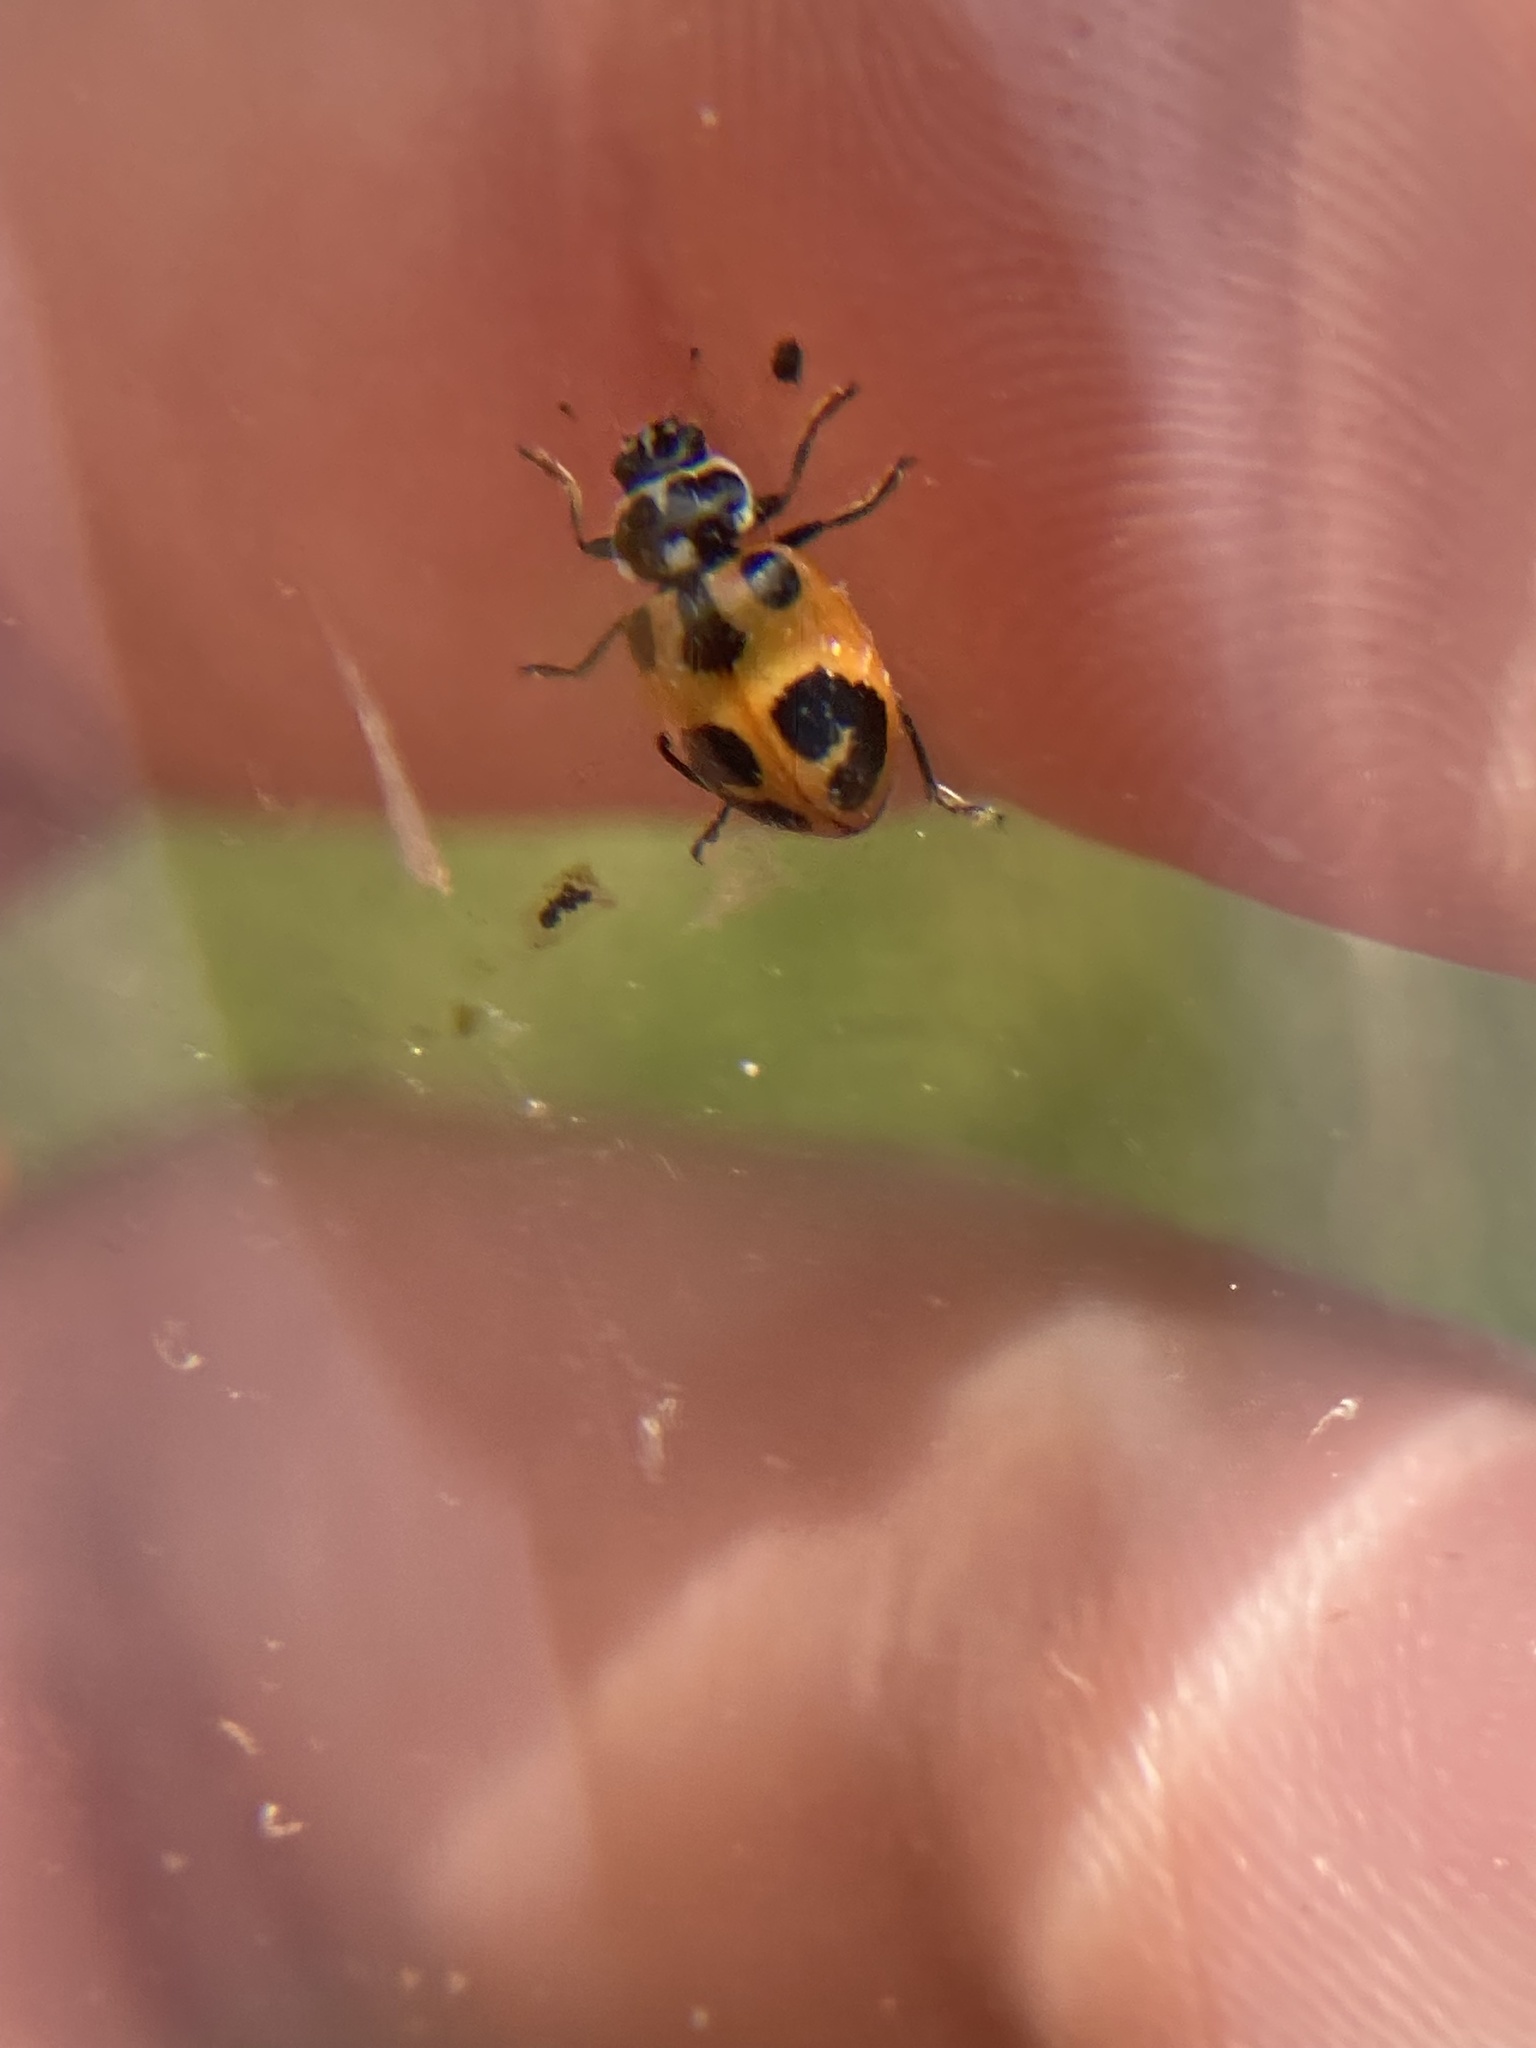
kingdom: Animalia
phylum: Arthropoda
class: Insecta
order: Coleoptera
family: Coccinellidae
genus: Hippodamia
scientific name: Hippodamia parenthesis
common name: Parenthesis lady beetle
